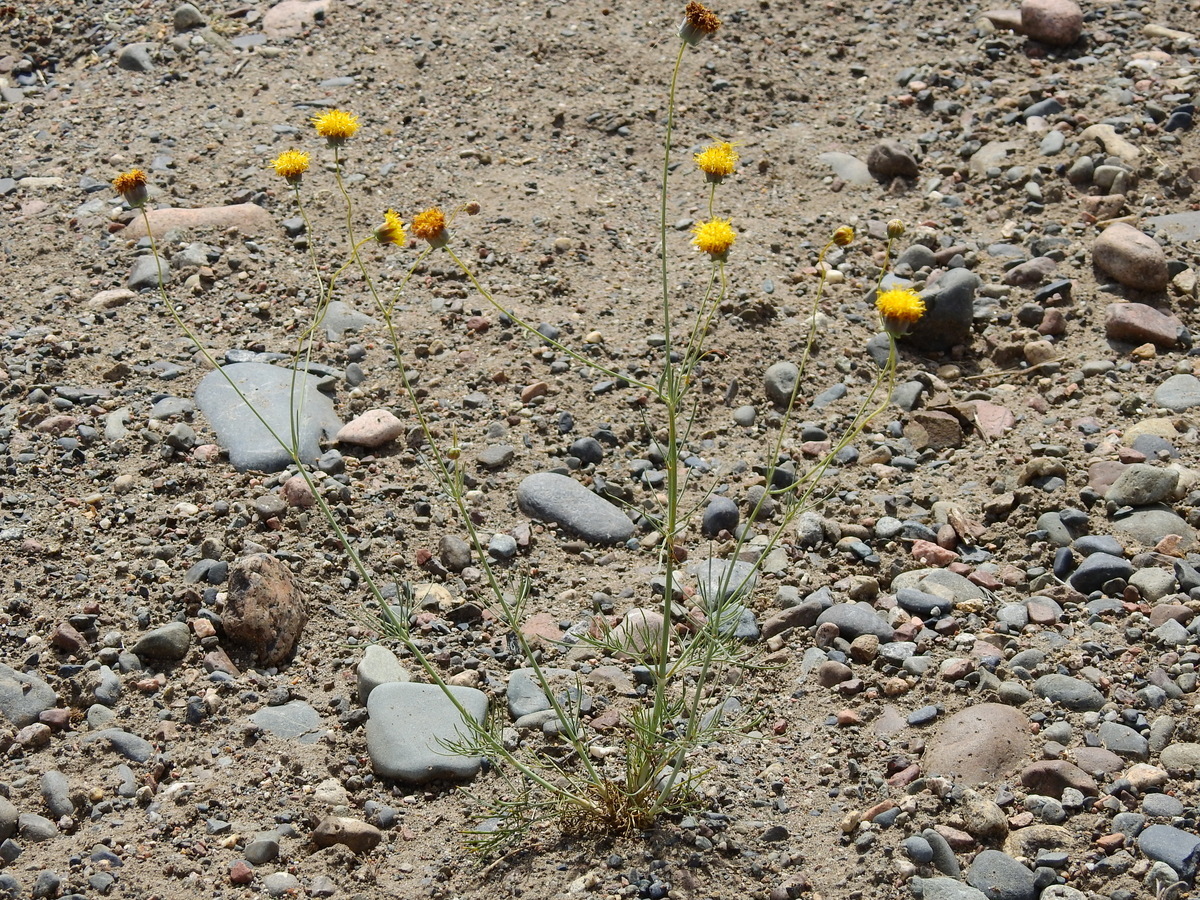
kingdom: Plantae
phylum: Tracheophyta
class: Magnoliopsida
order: Asterales
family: Asteraceae
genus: Thelesperma
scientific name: Thelesperma megapotamicum
